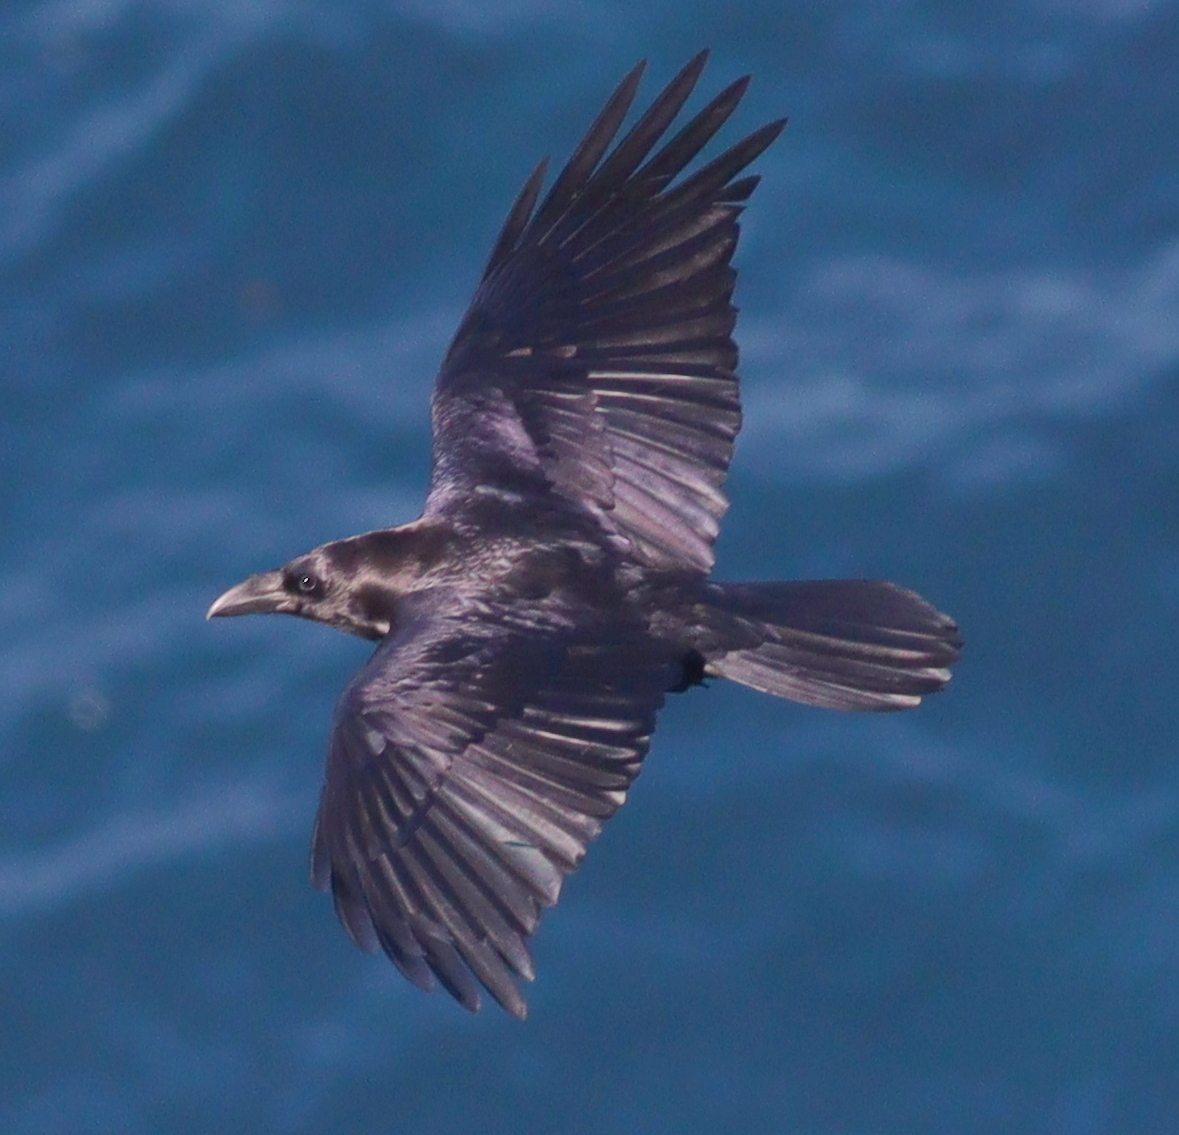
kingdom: Animalia
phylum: Chordata
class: Aves
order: Passeriformes
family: Corvidae
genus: Corvus
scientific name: Corvus corax
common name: Common raven
